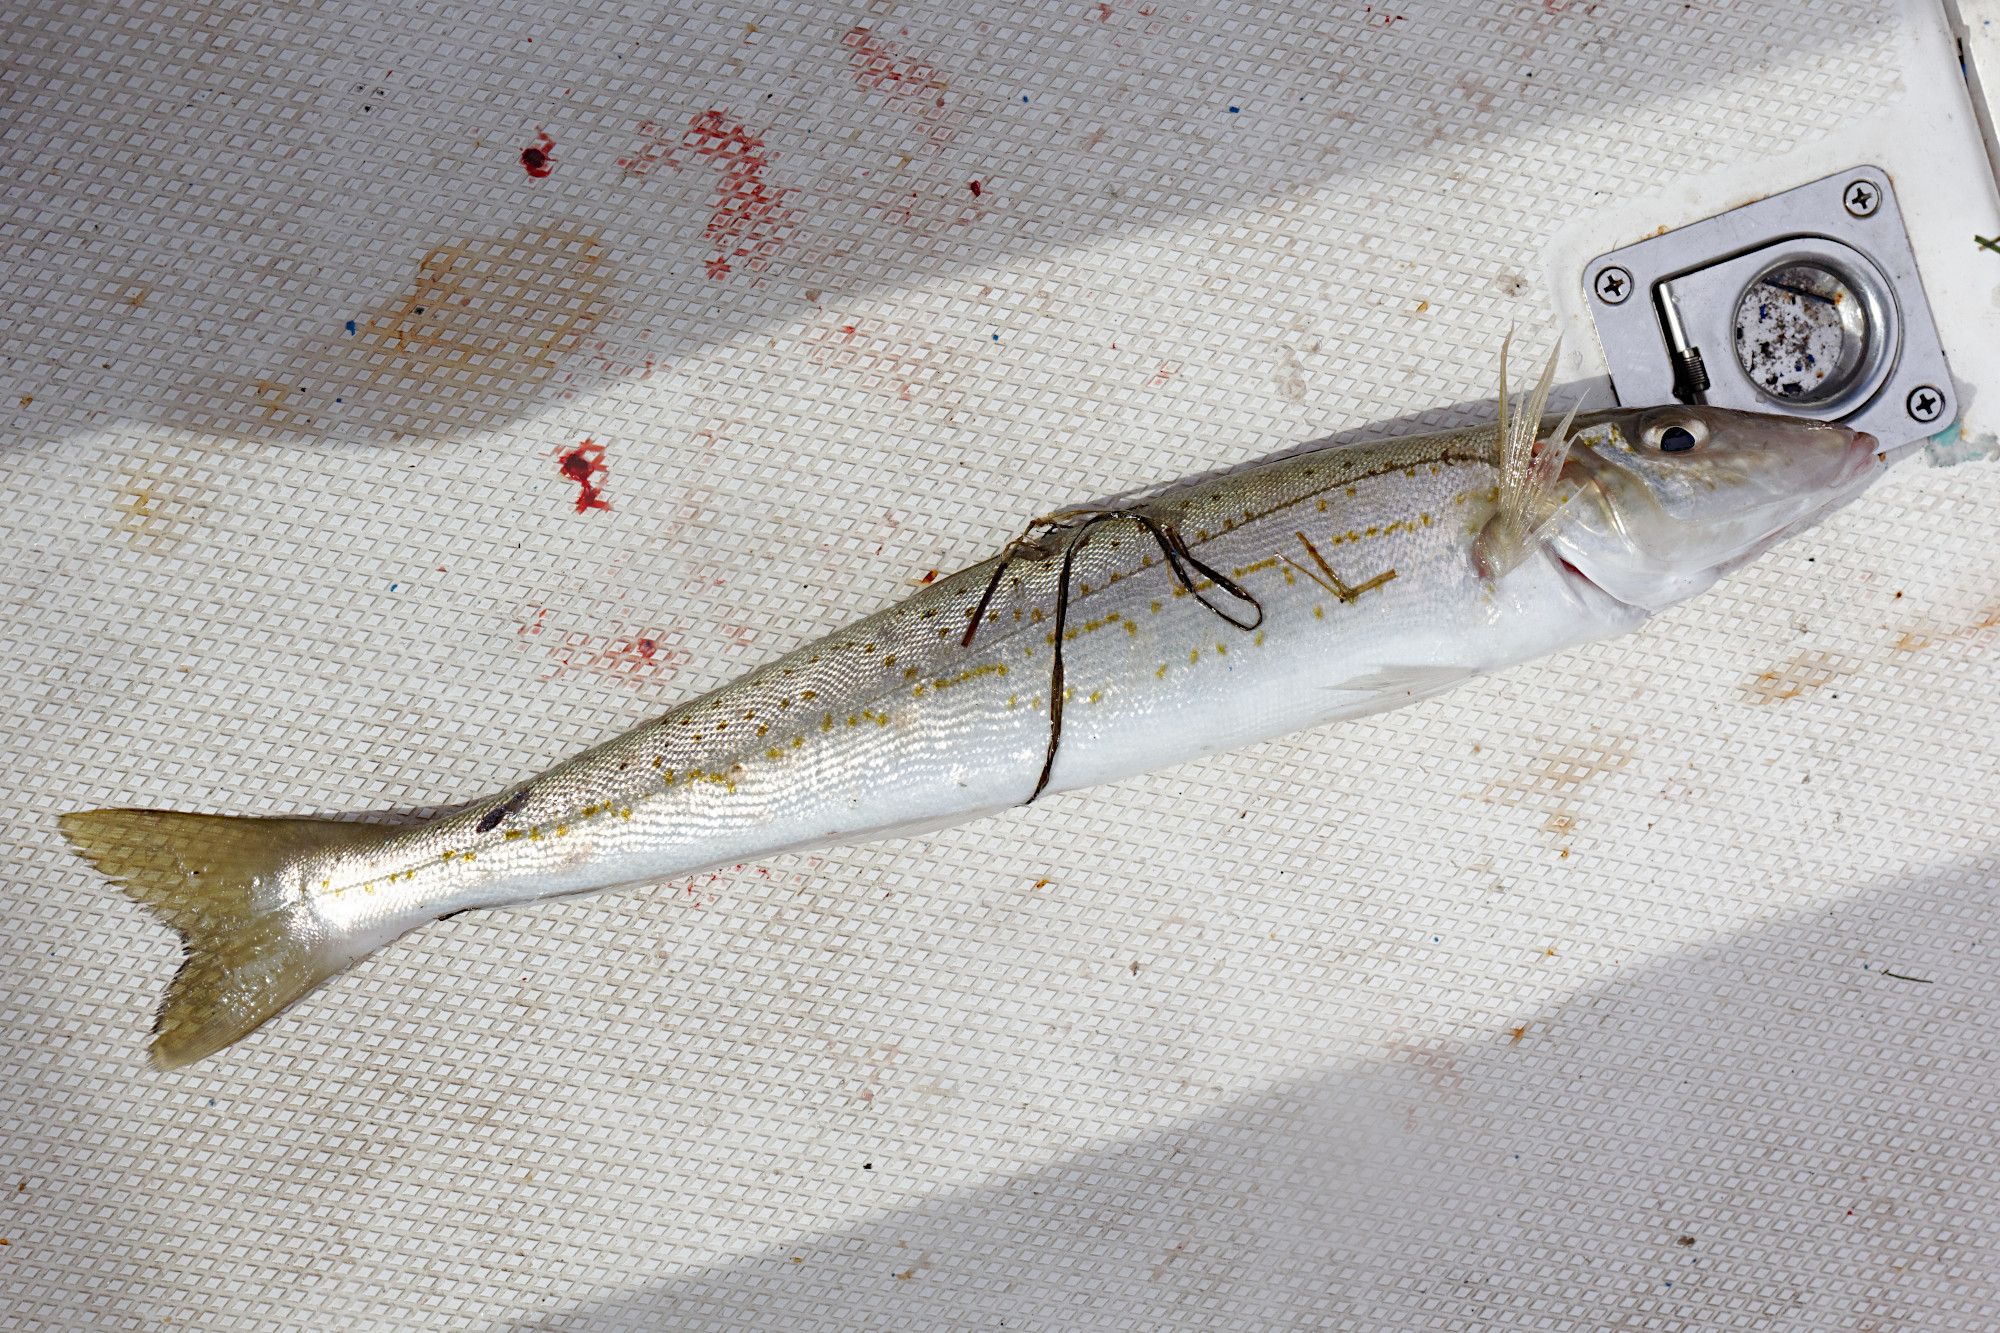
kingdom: Animalia
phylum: Chordata
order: Perciformes
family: Sillaginidae
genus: Sillaginodes
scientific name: Sillaginodes punctatus
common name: King george whiting
